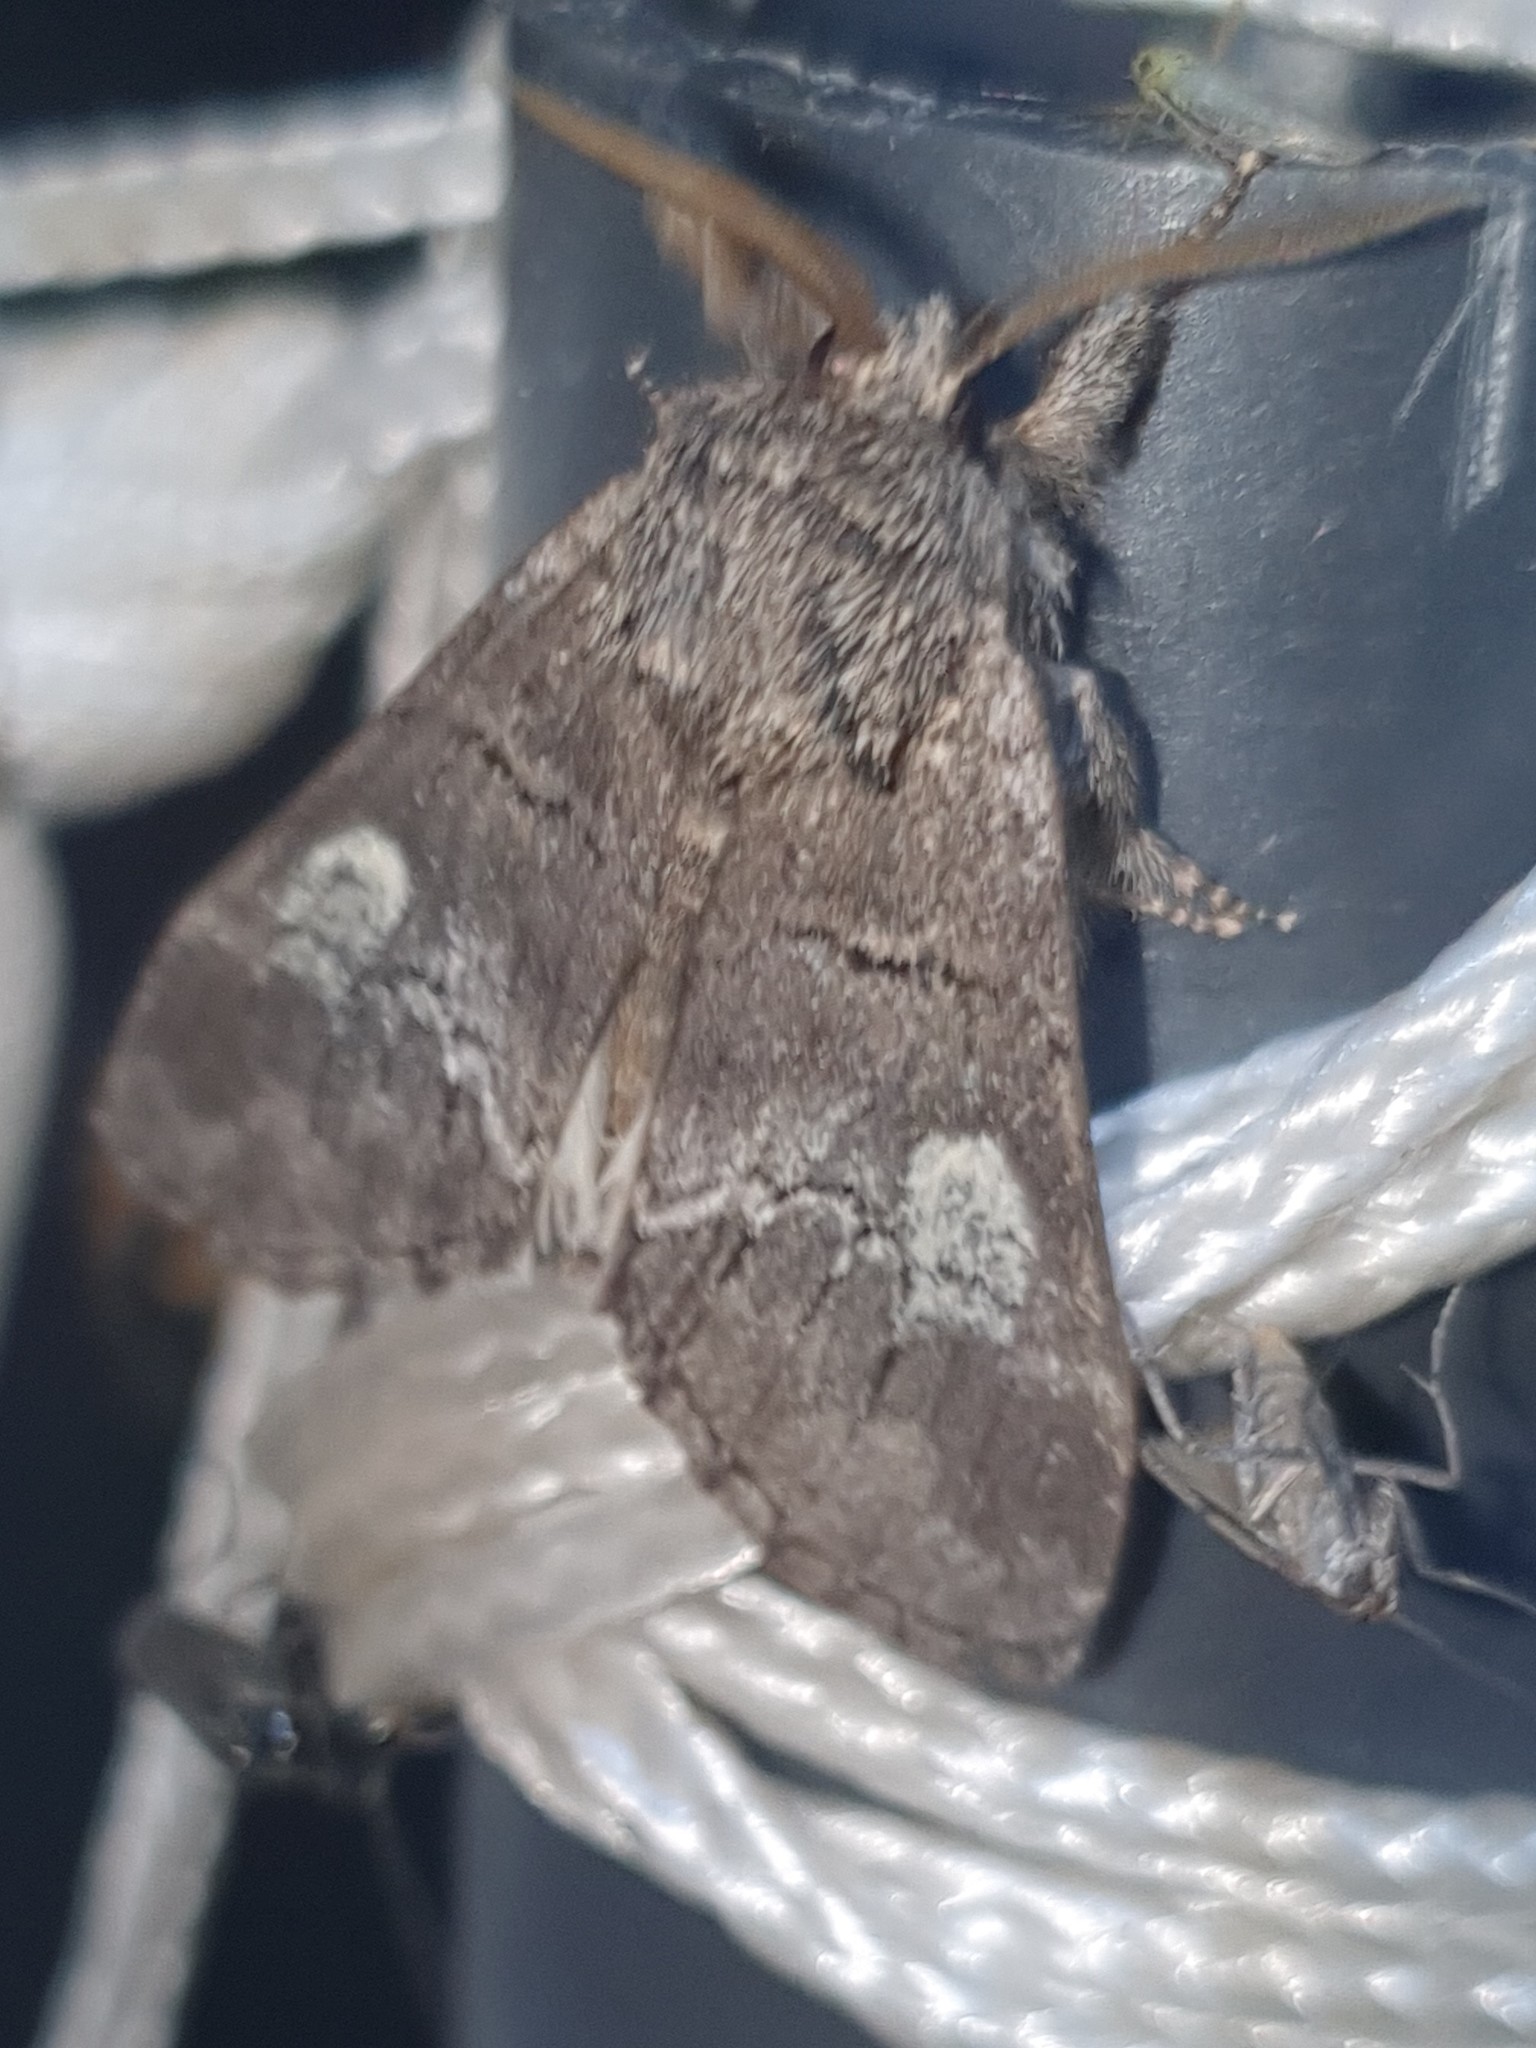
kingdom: Animalia
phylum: Arthropoda
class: Insecta
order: Lepidoptera
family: Notodontidae
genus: Drymonia
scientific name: Drymonia querna
